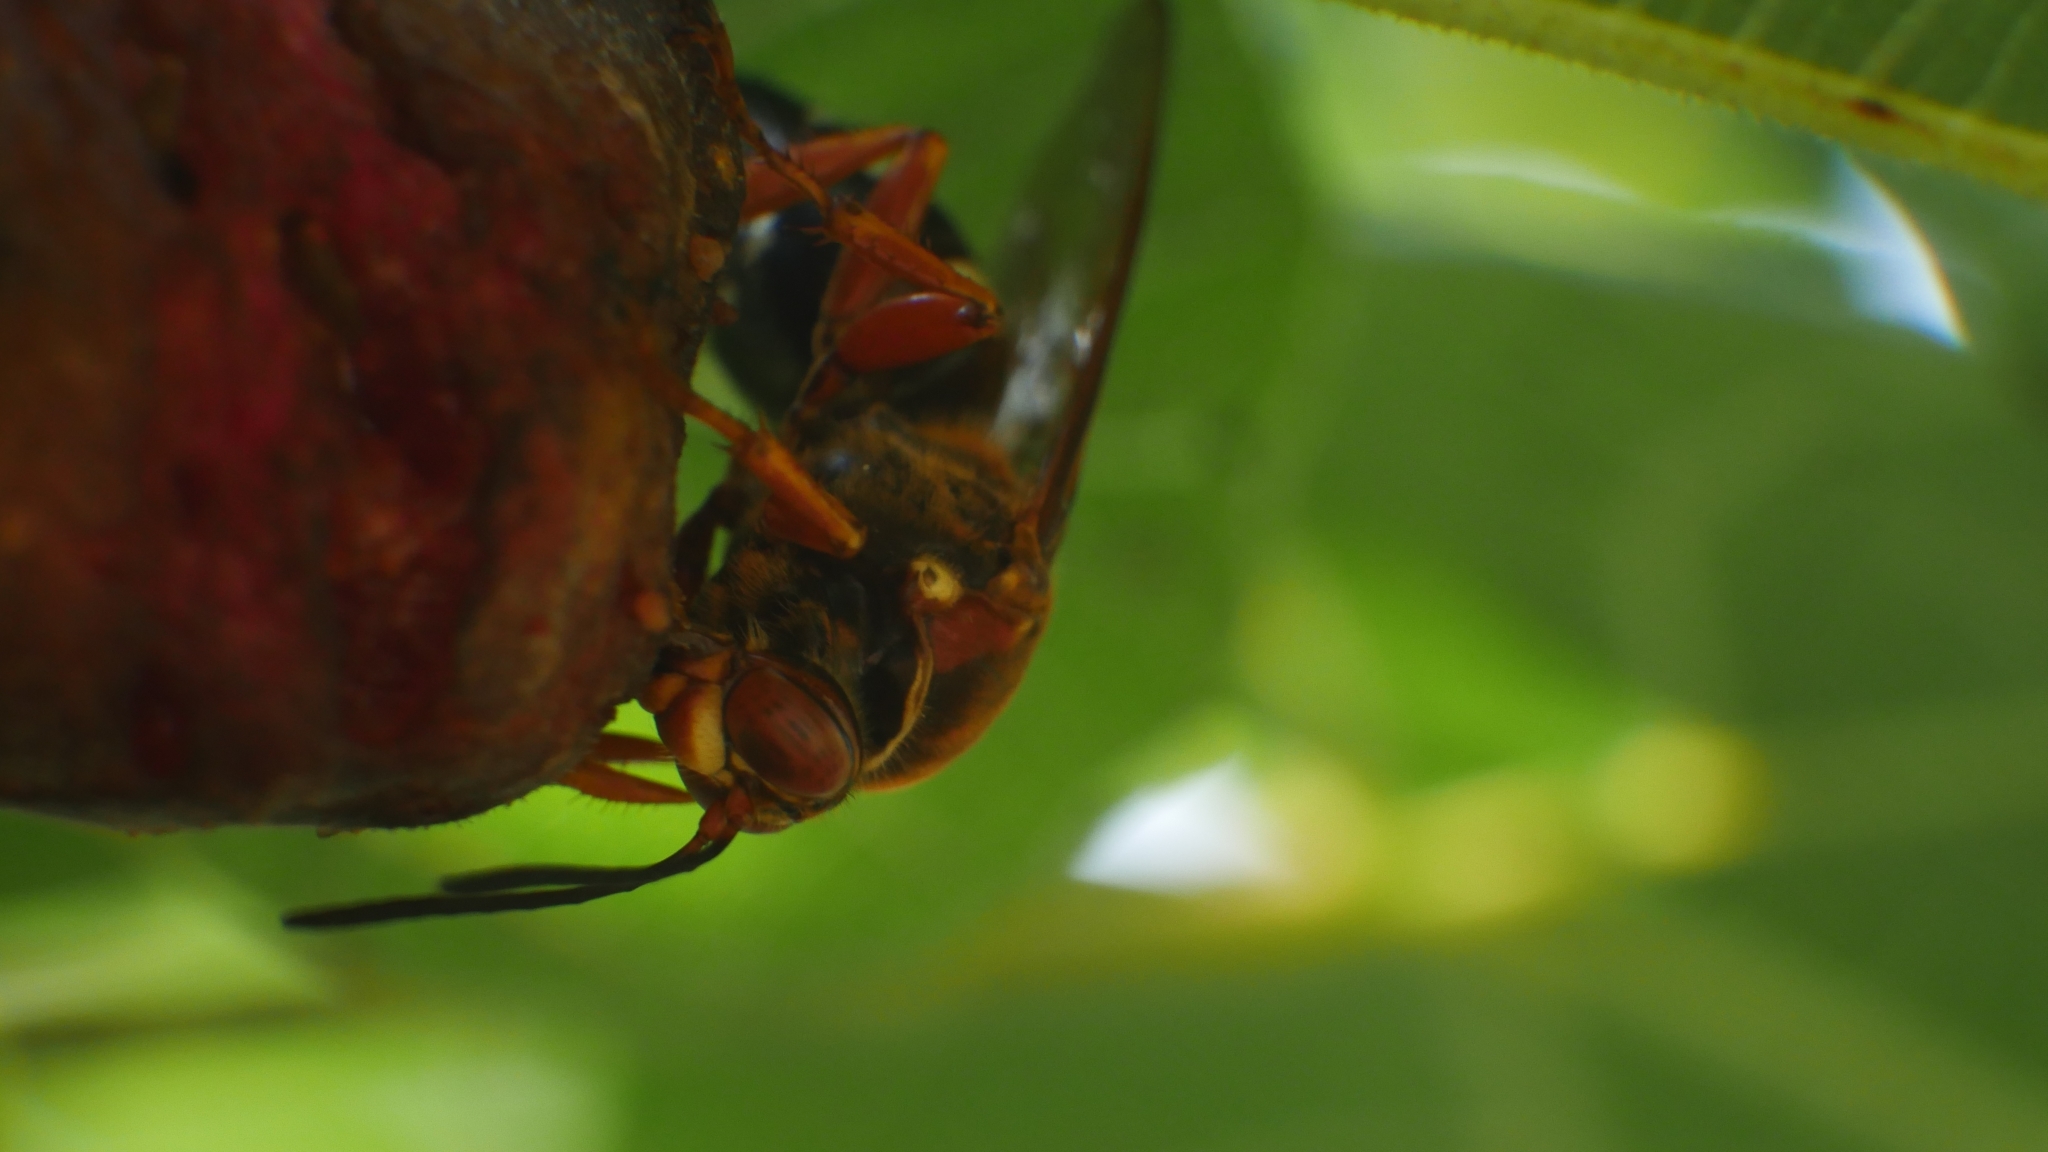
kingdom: Animalia
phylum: Arthropoda
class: Insecta
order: Hymenoptera
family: Crabronidae
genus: Sphecius
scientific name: Sphecius speciosus
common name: Cicada killer
